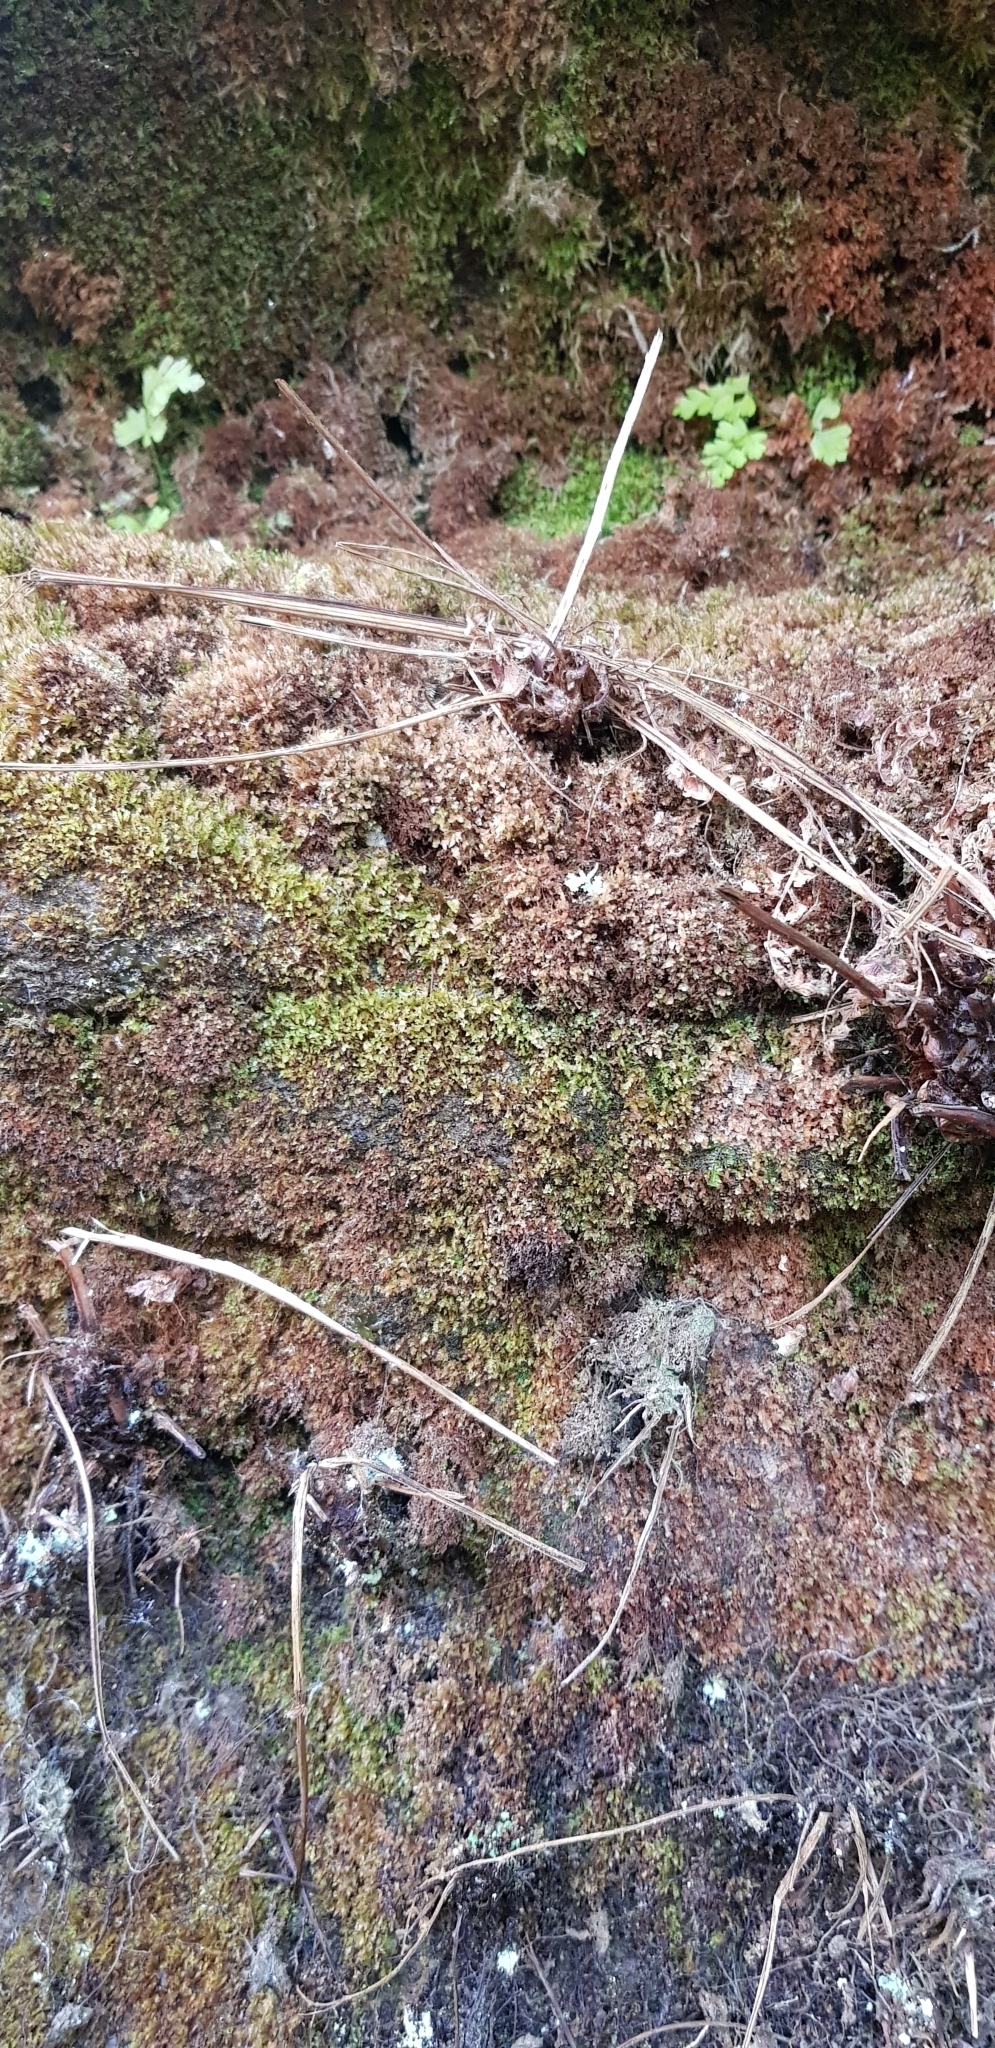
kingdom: Plantae
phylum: Bryophyta
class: Polytrichopsida
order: Tetraphidales
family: Tetraphidaceae
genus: Tetraphis
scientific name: Tetraphis pellucida
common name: Common four-toothed moss
